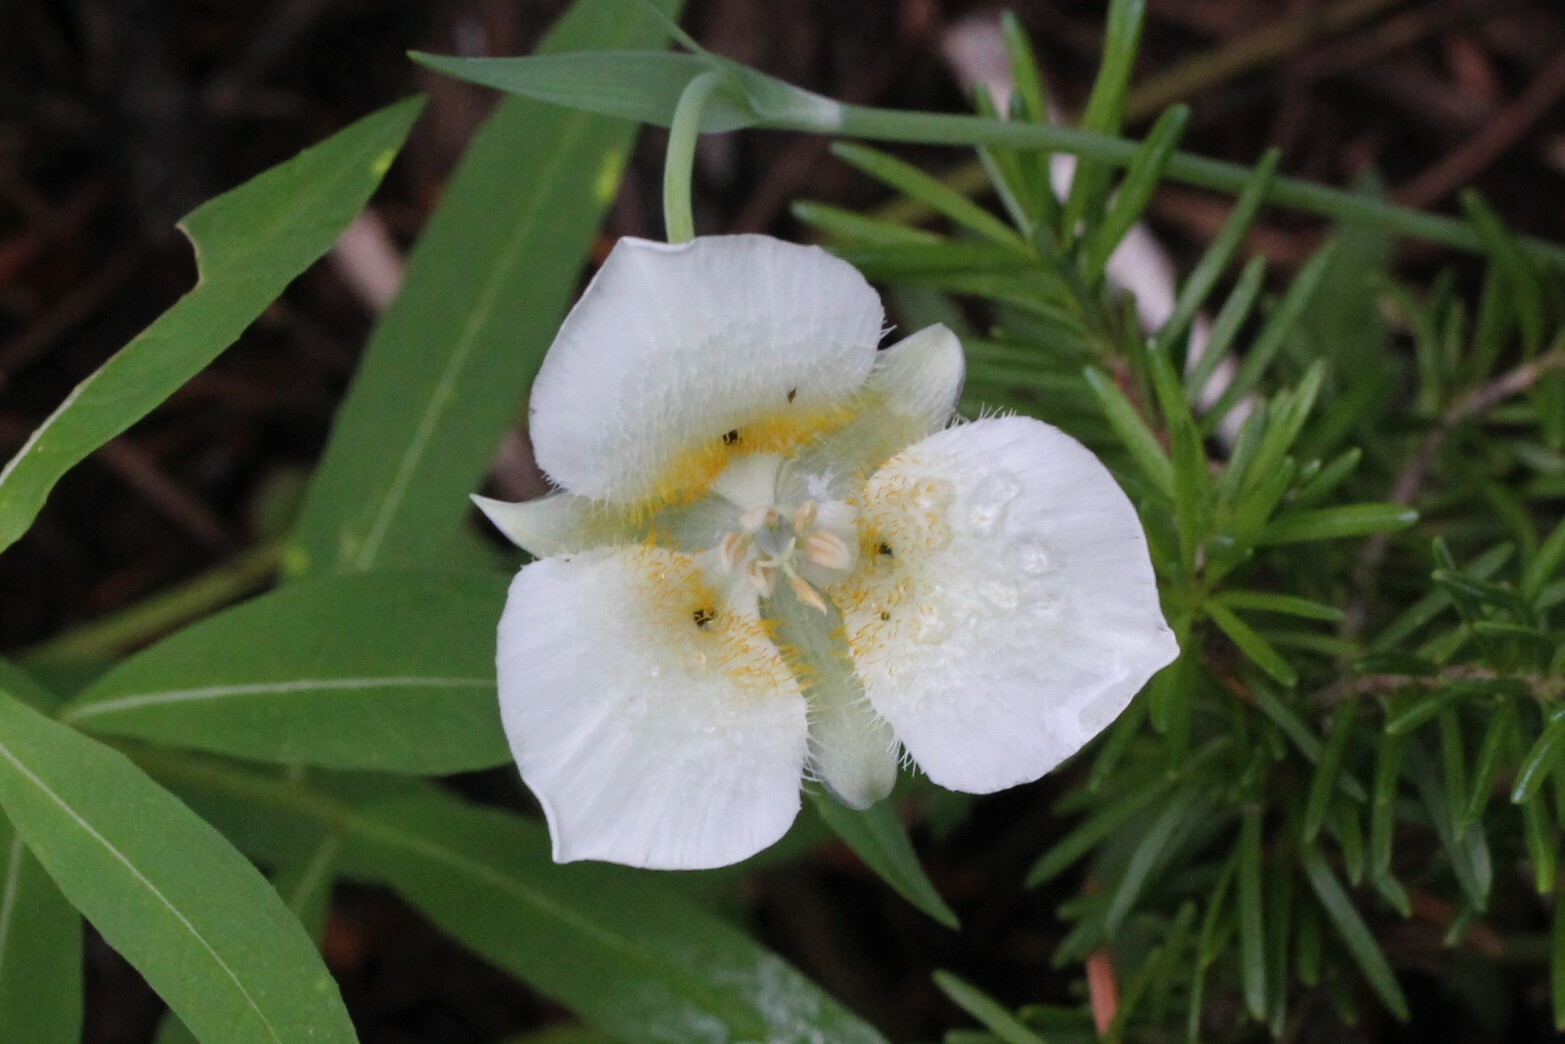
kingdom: Plantae
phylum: Tracheophyta
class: Liliopsida
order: Liliales
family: Liliaceae
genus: Calochortus
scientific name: Calochortus apiculatus
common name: Baker's mariposa lily
